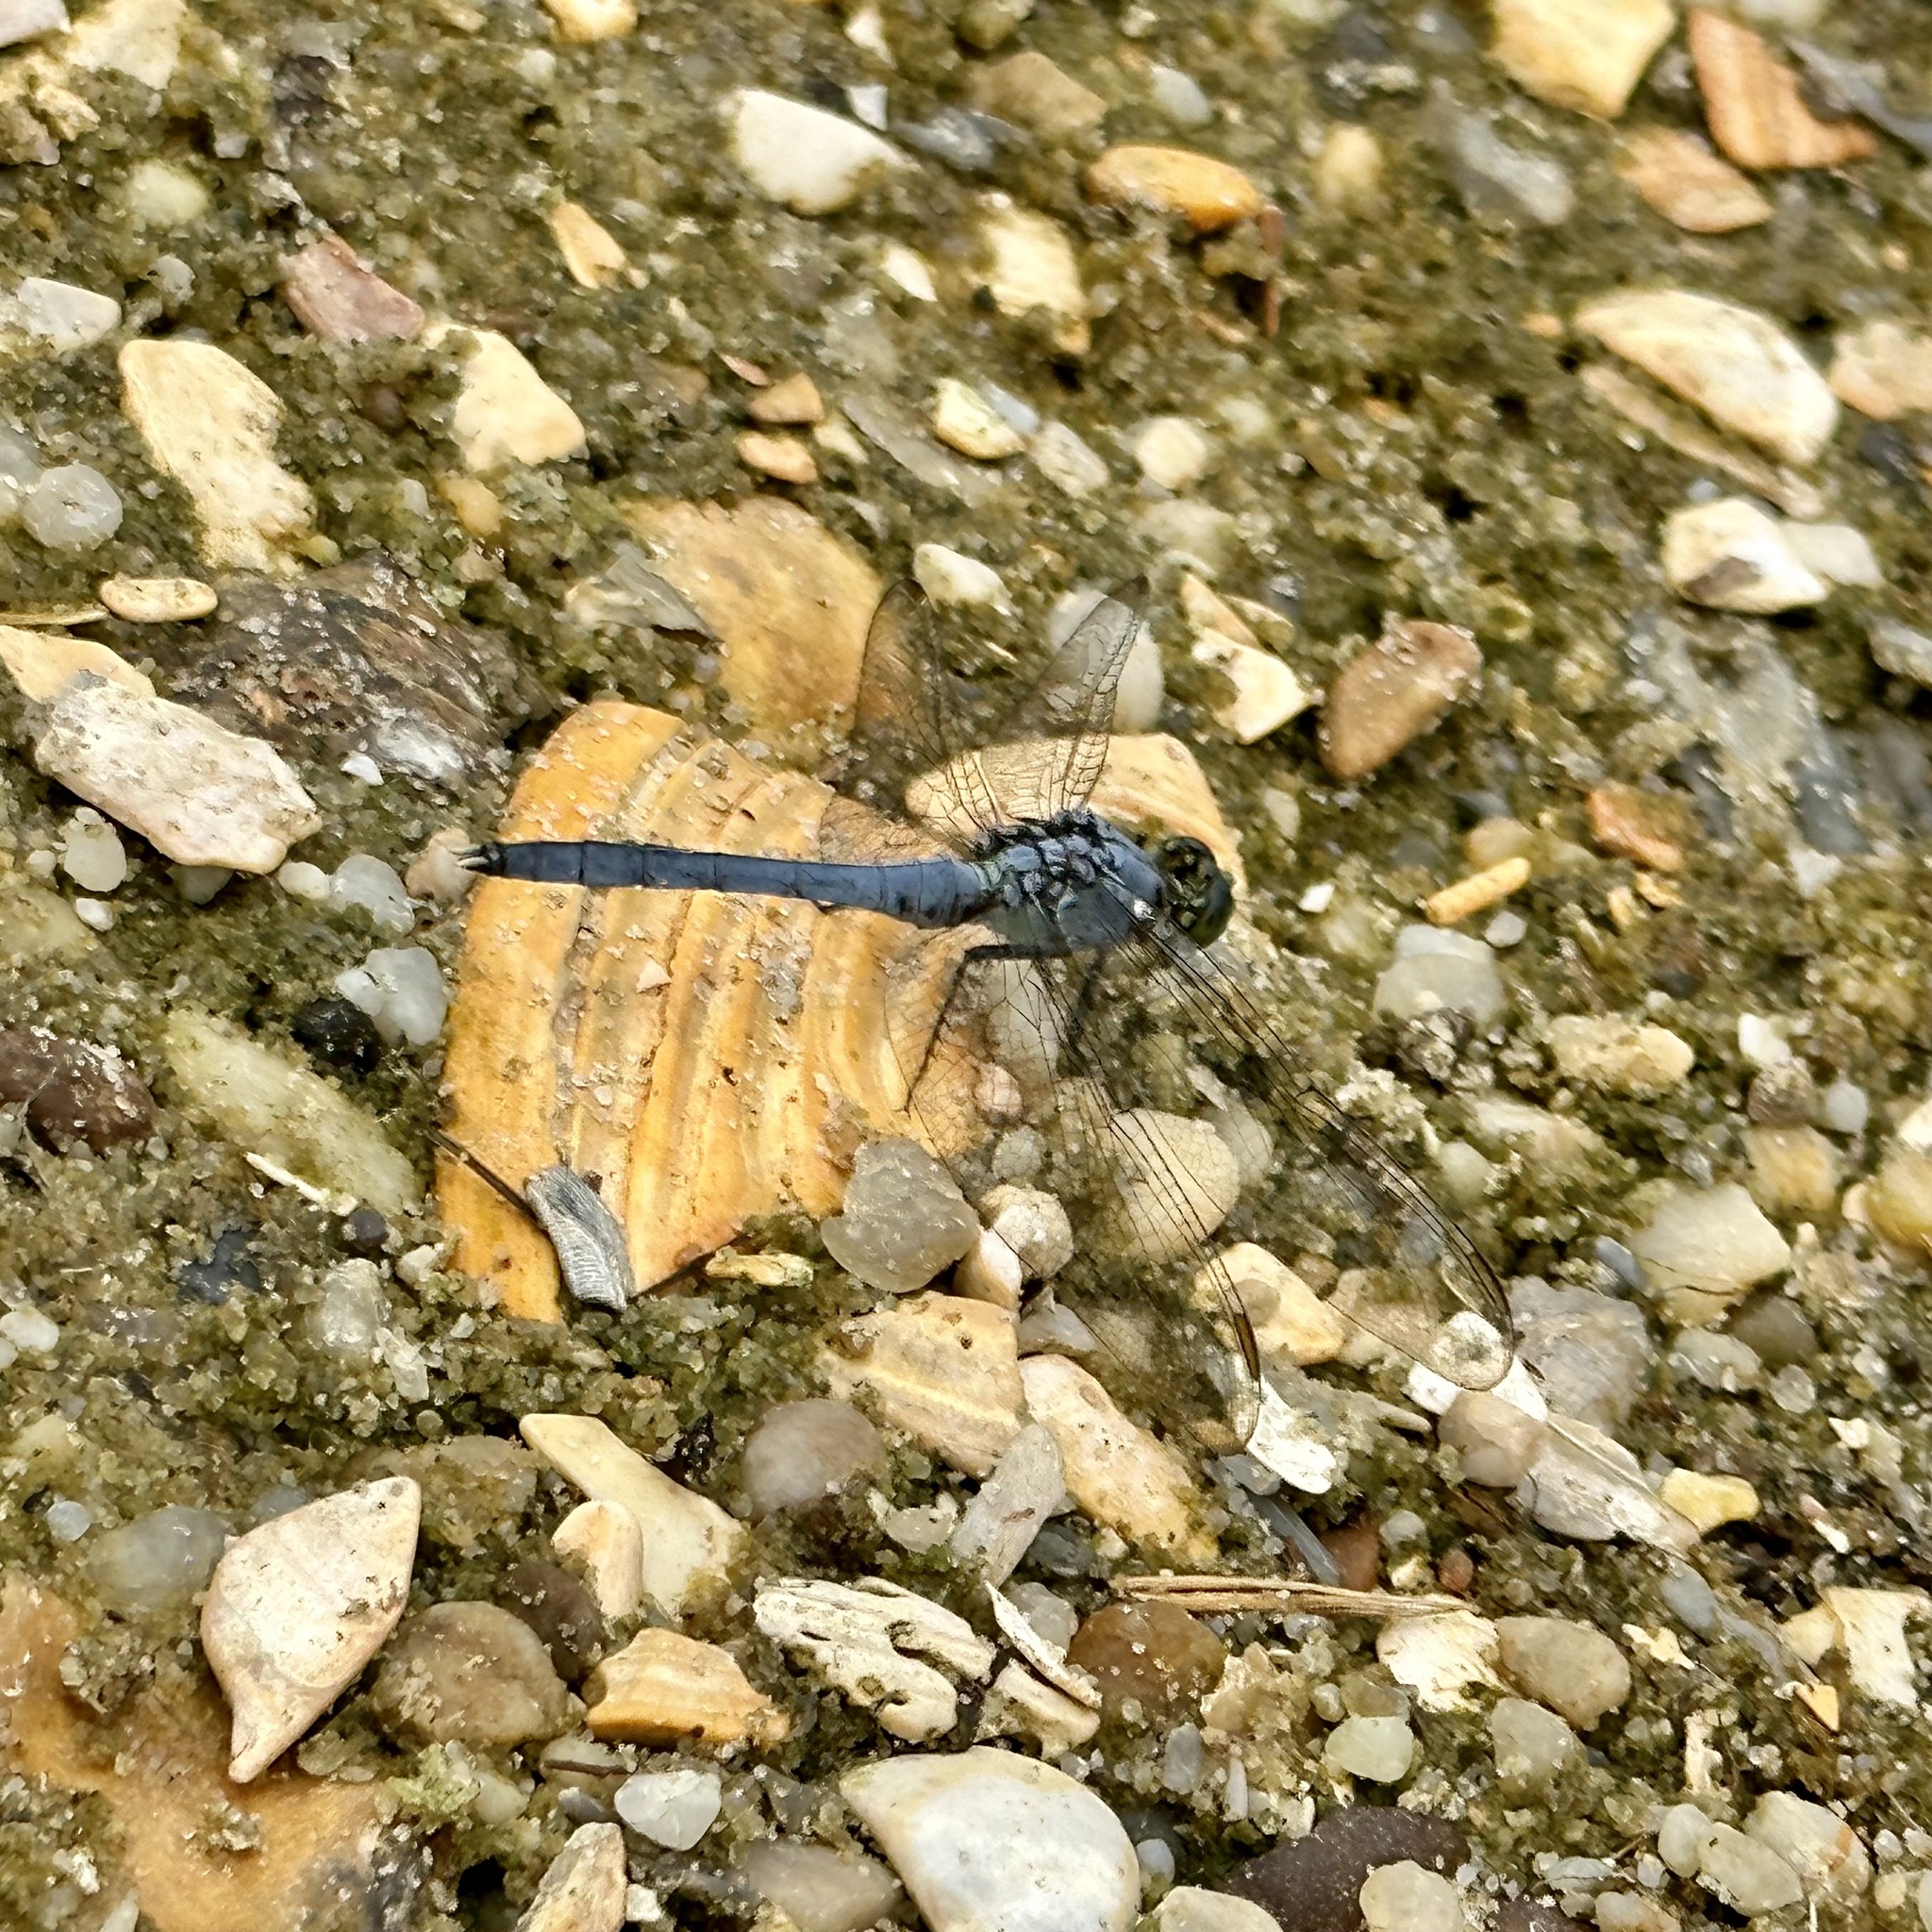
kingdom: Animalia
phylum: Arthropoda
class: Insecta
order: Odonata
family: Libellulidae
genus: Erythemis
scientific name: Erythemis simplicicollis
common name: Eastern pondhawk
